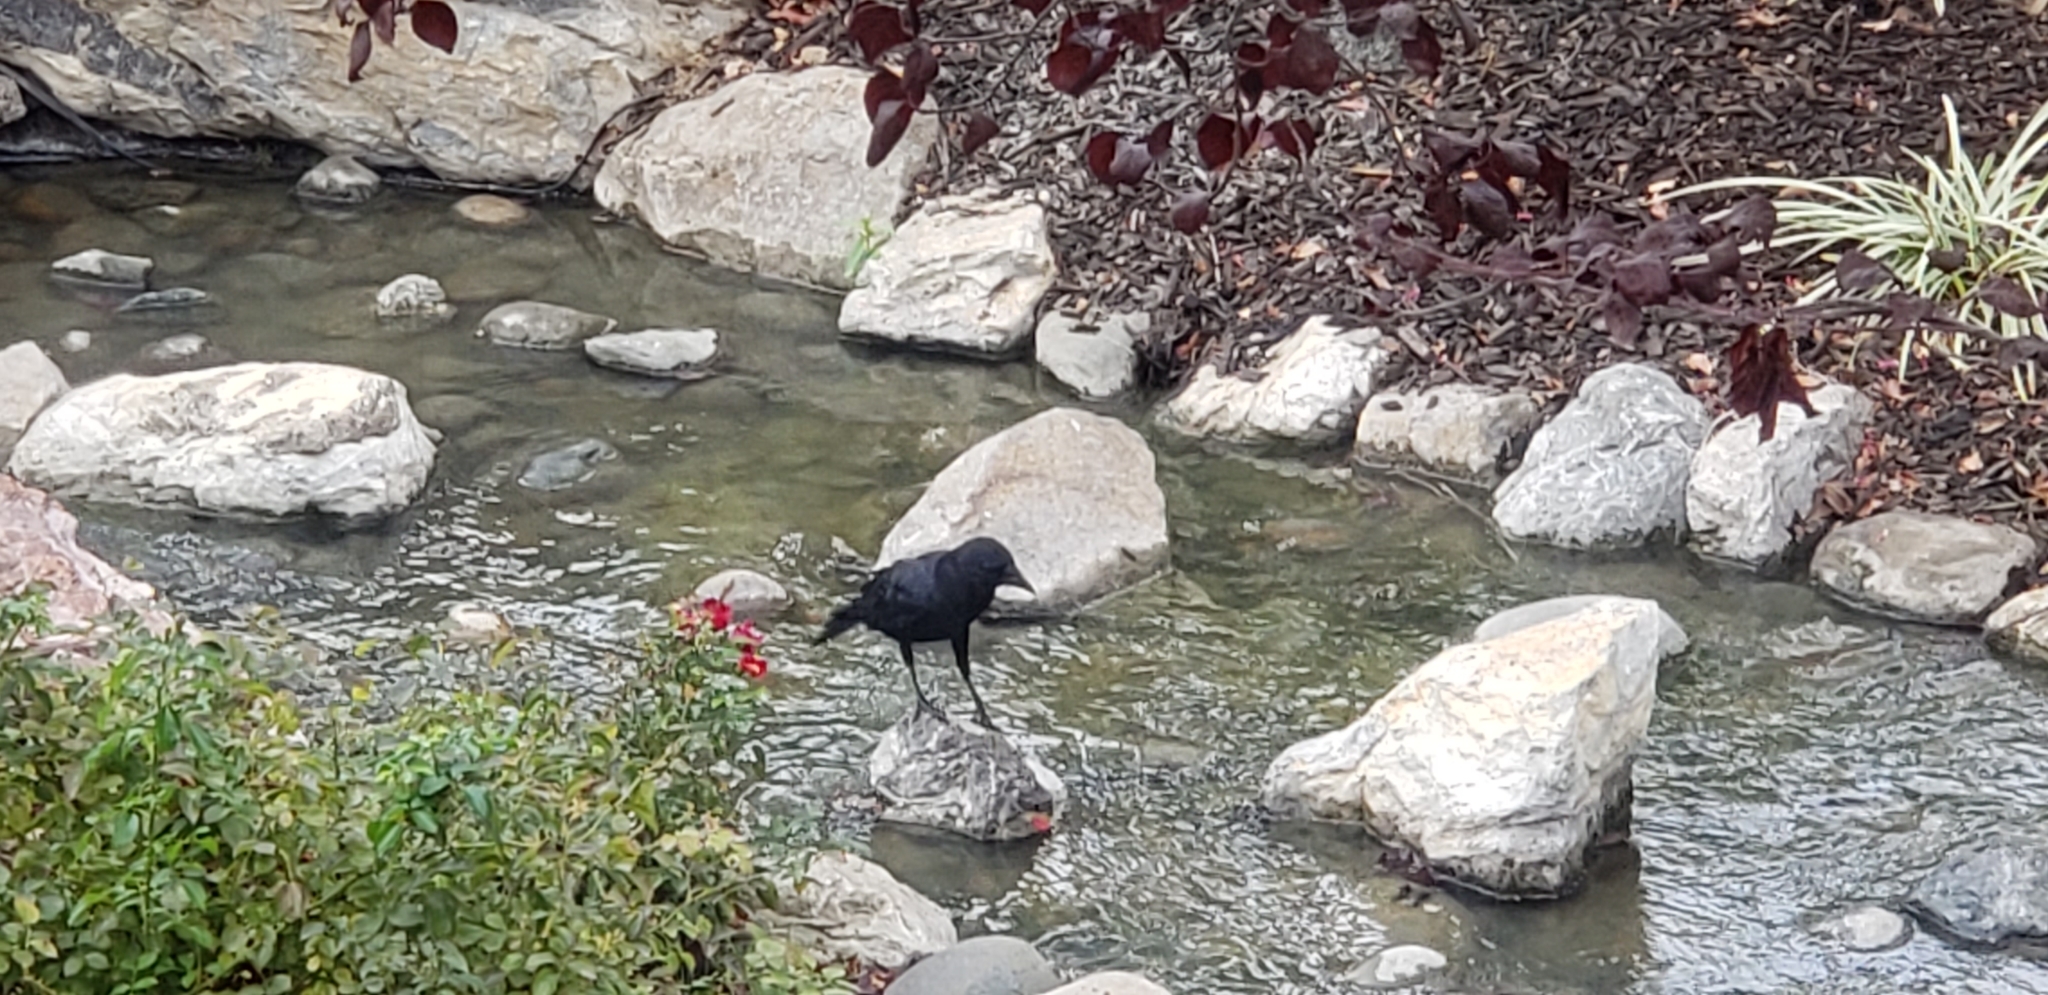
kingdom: Animalia
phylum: Chordata
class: Aves
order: Passeriformes
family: Corvidae
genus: Corvus
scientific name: Corvus brachyrhynchos
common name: American crow
